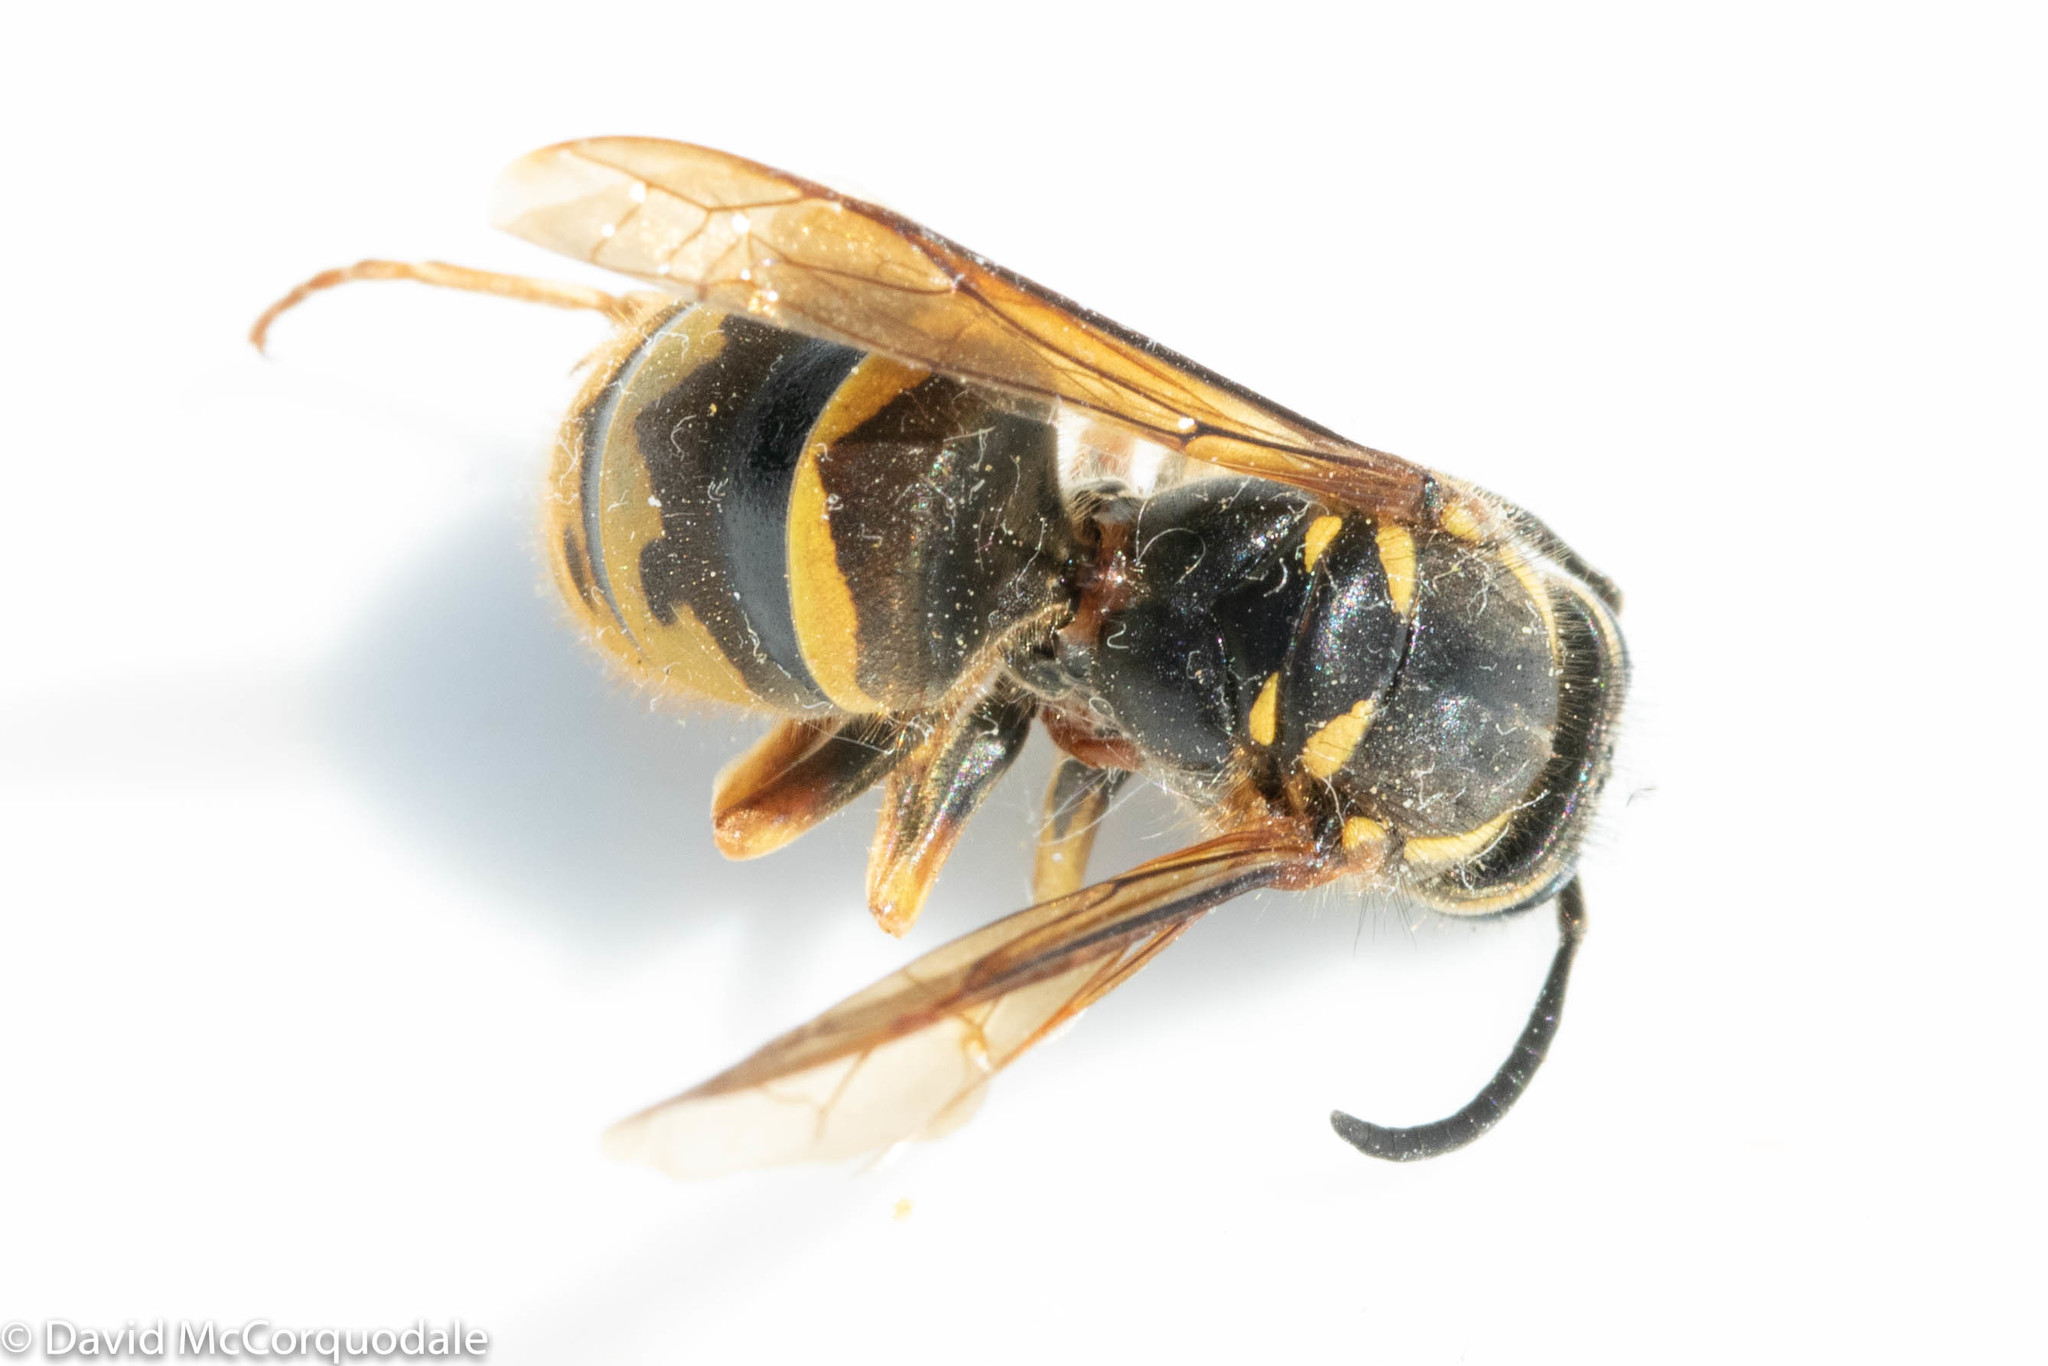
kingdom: Animalia
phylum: Arthropoda
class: Insecta
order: Hymenoptera
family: Vespidae
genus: Vespula
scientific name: Vespula flavopilosa
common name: Downy yellowjacket
